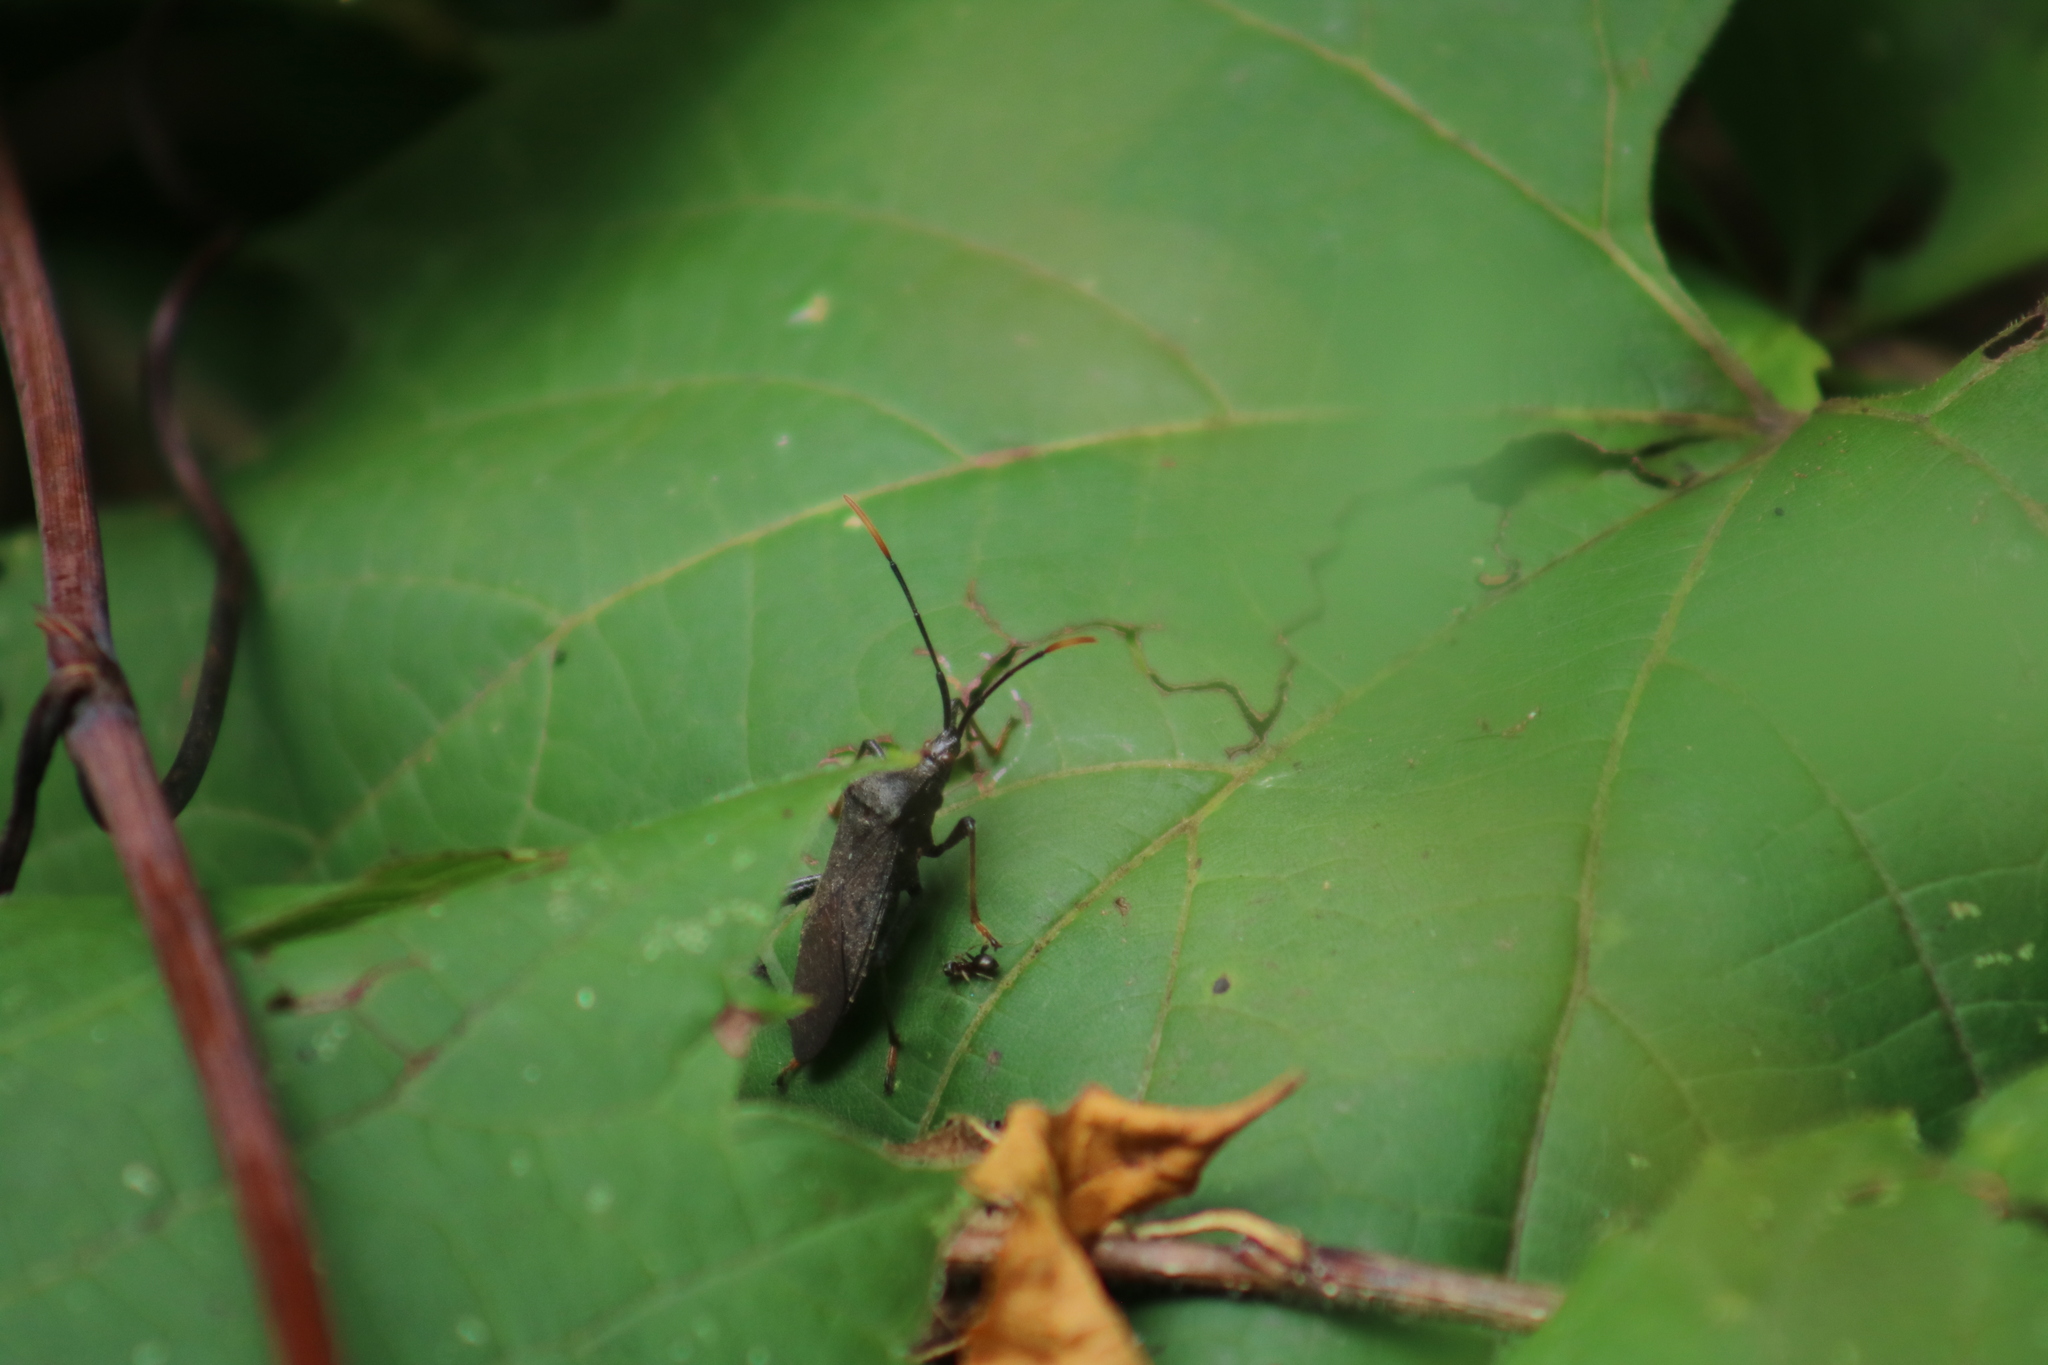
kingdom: Animalia
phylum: Arthropoda
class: Insecta
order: Hemiptera
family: Coreidae
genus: Acanthocephala
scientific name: Acanthocephala terminalis
